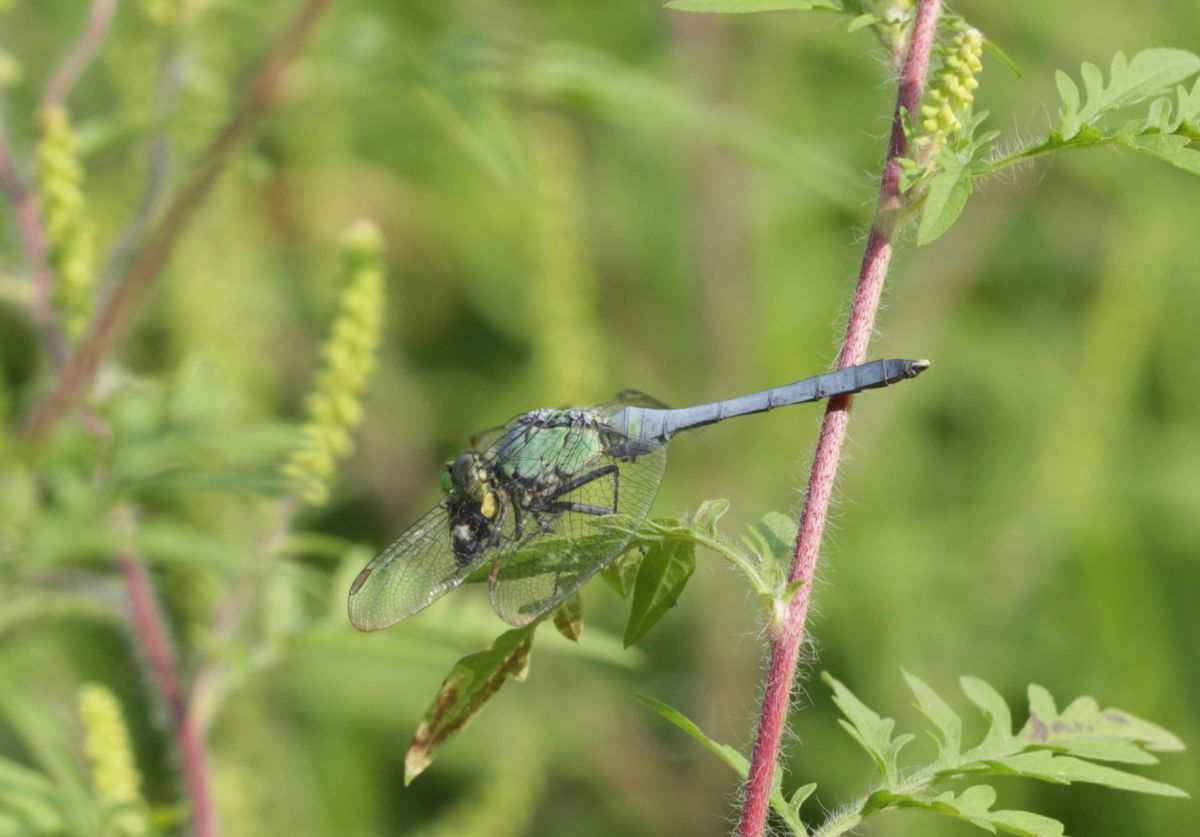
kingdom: Animalia
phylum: Arthropoda
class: Insecta
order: Odonata
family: Libellulidae
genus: Erythemis
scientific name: Erythemis simplicicollis
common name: Eastern pondhawk
